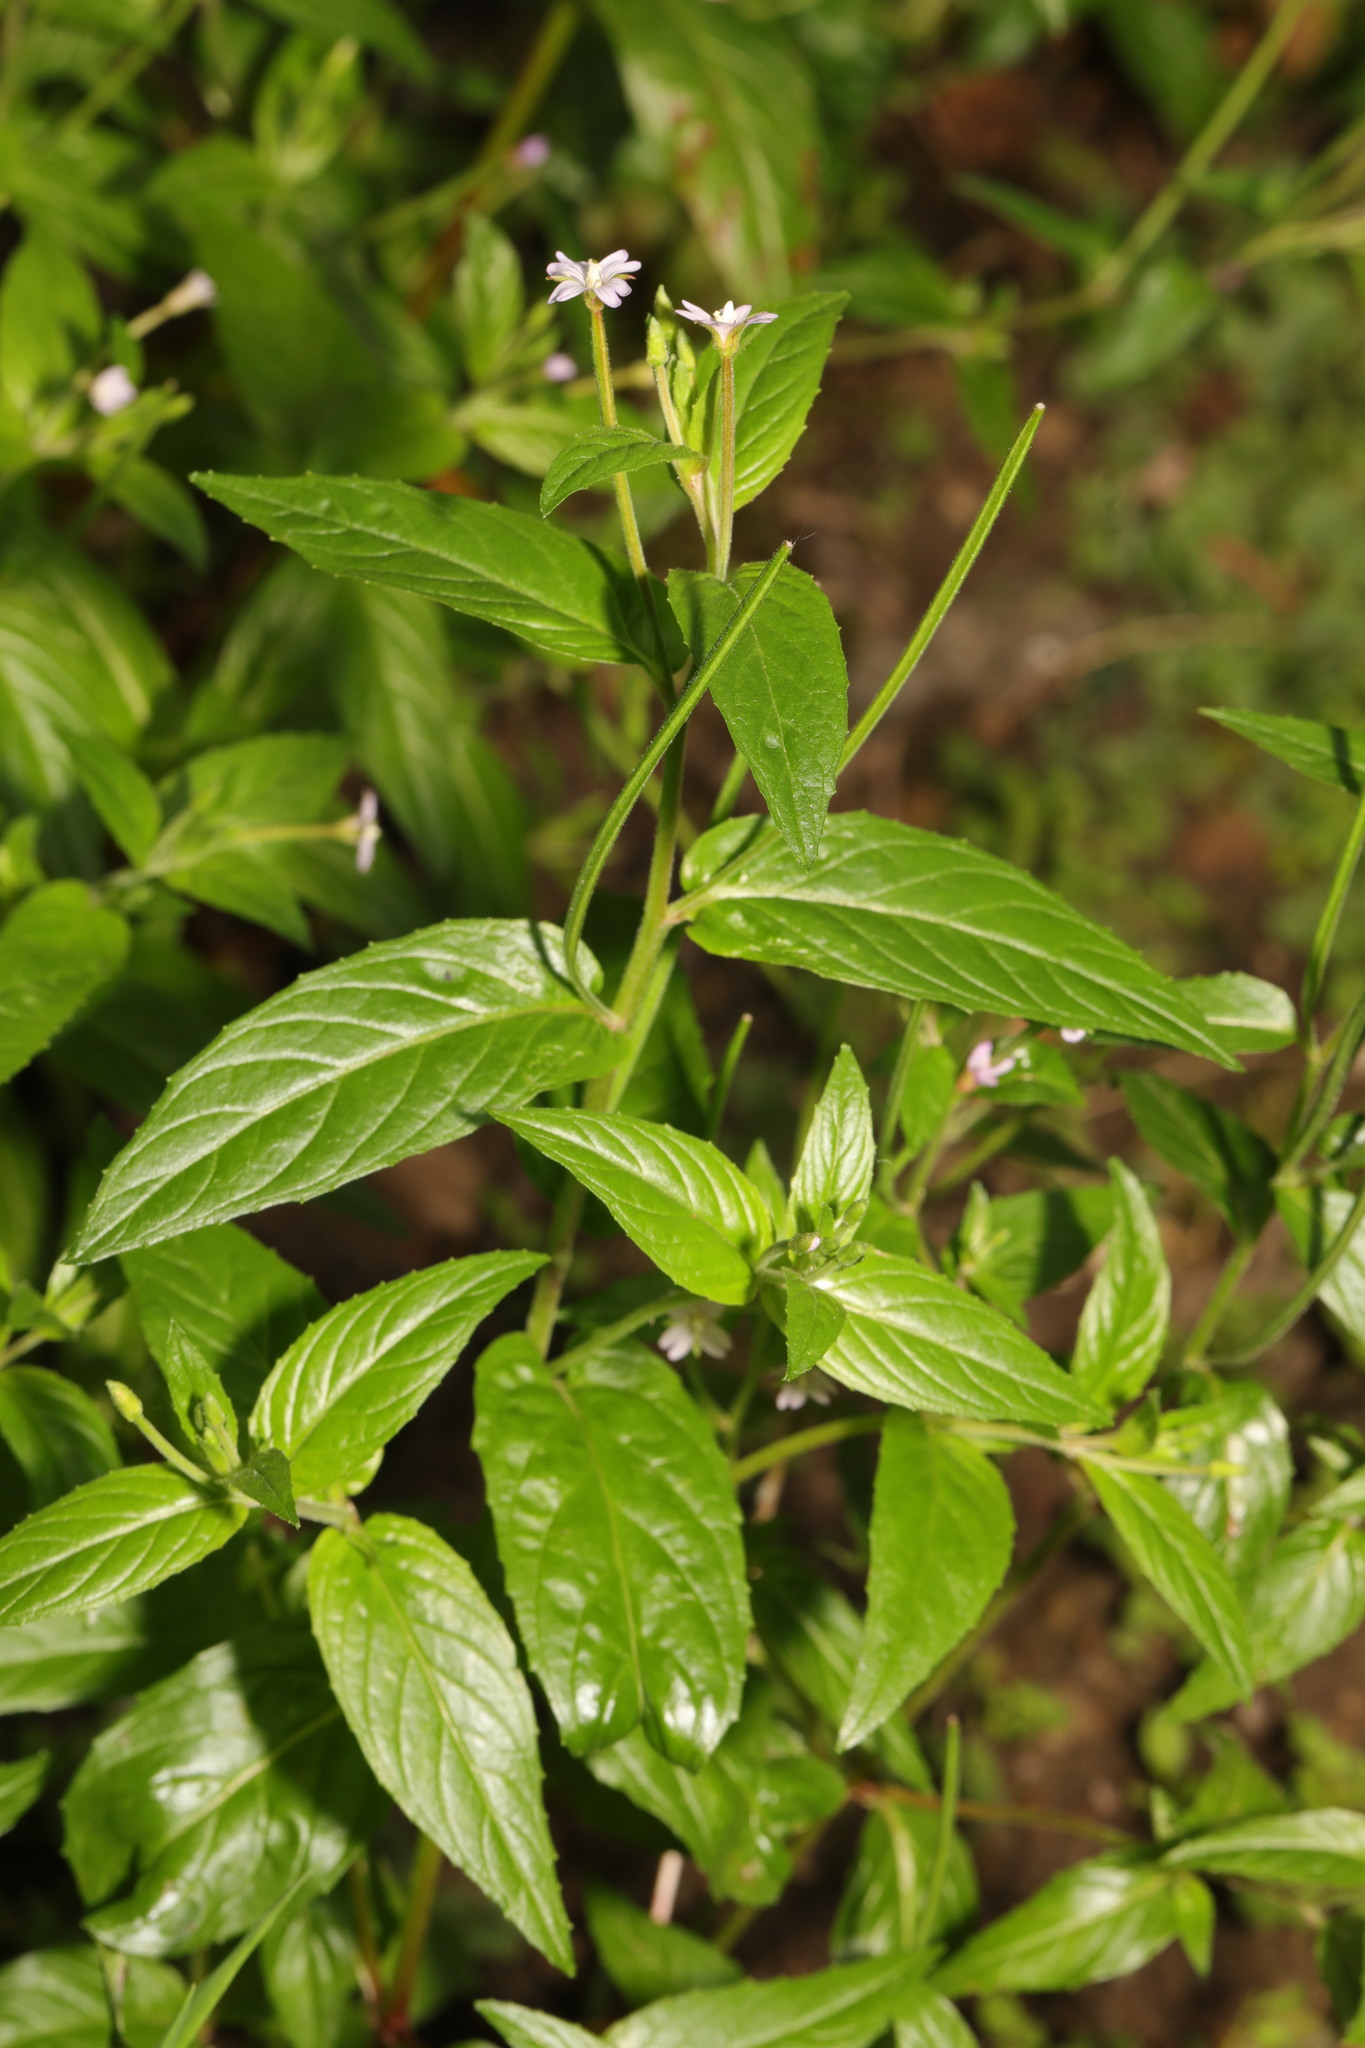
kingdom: Plantae
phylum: Tracheophyta
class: Magnoliopsida
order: Myrtales
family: Onagraceae
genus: Epilobium
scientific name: Epilobium montanum
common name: Broad-leaved willowherb
